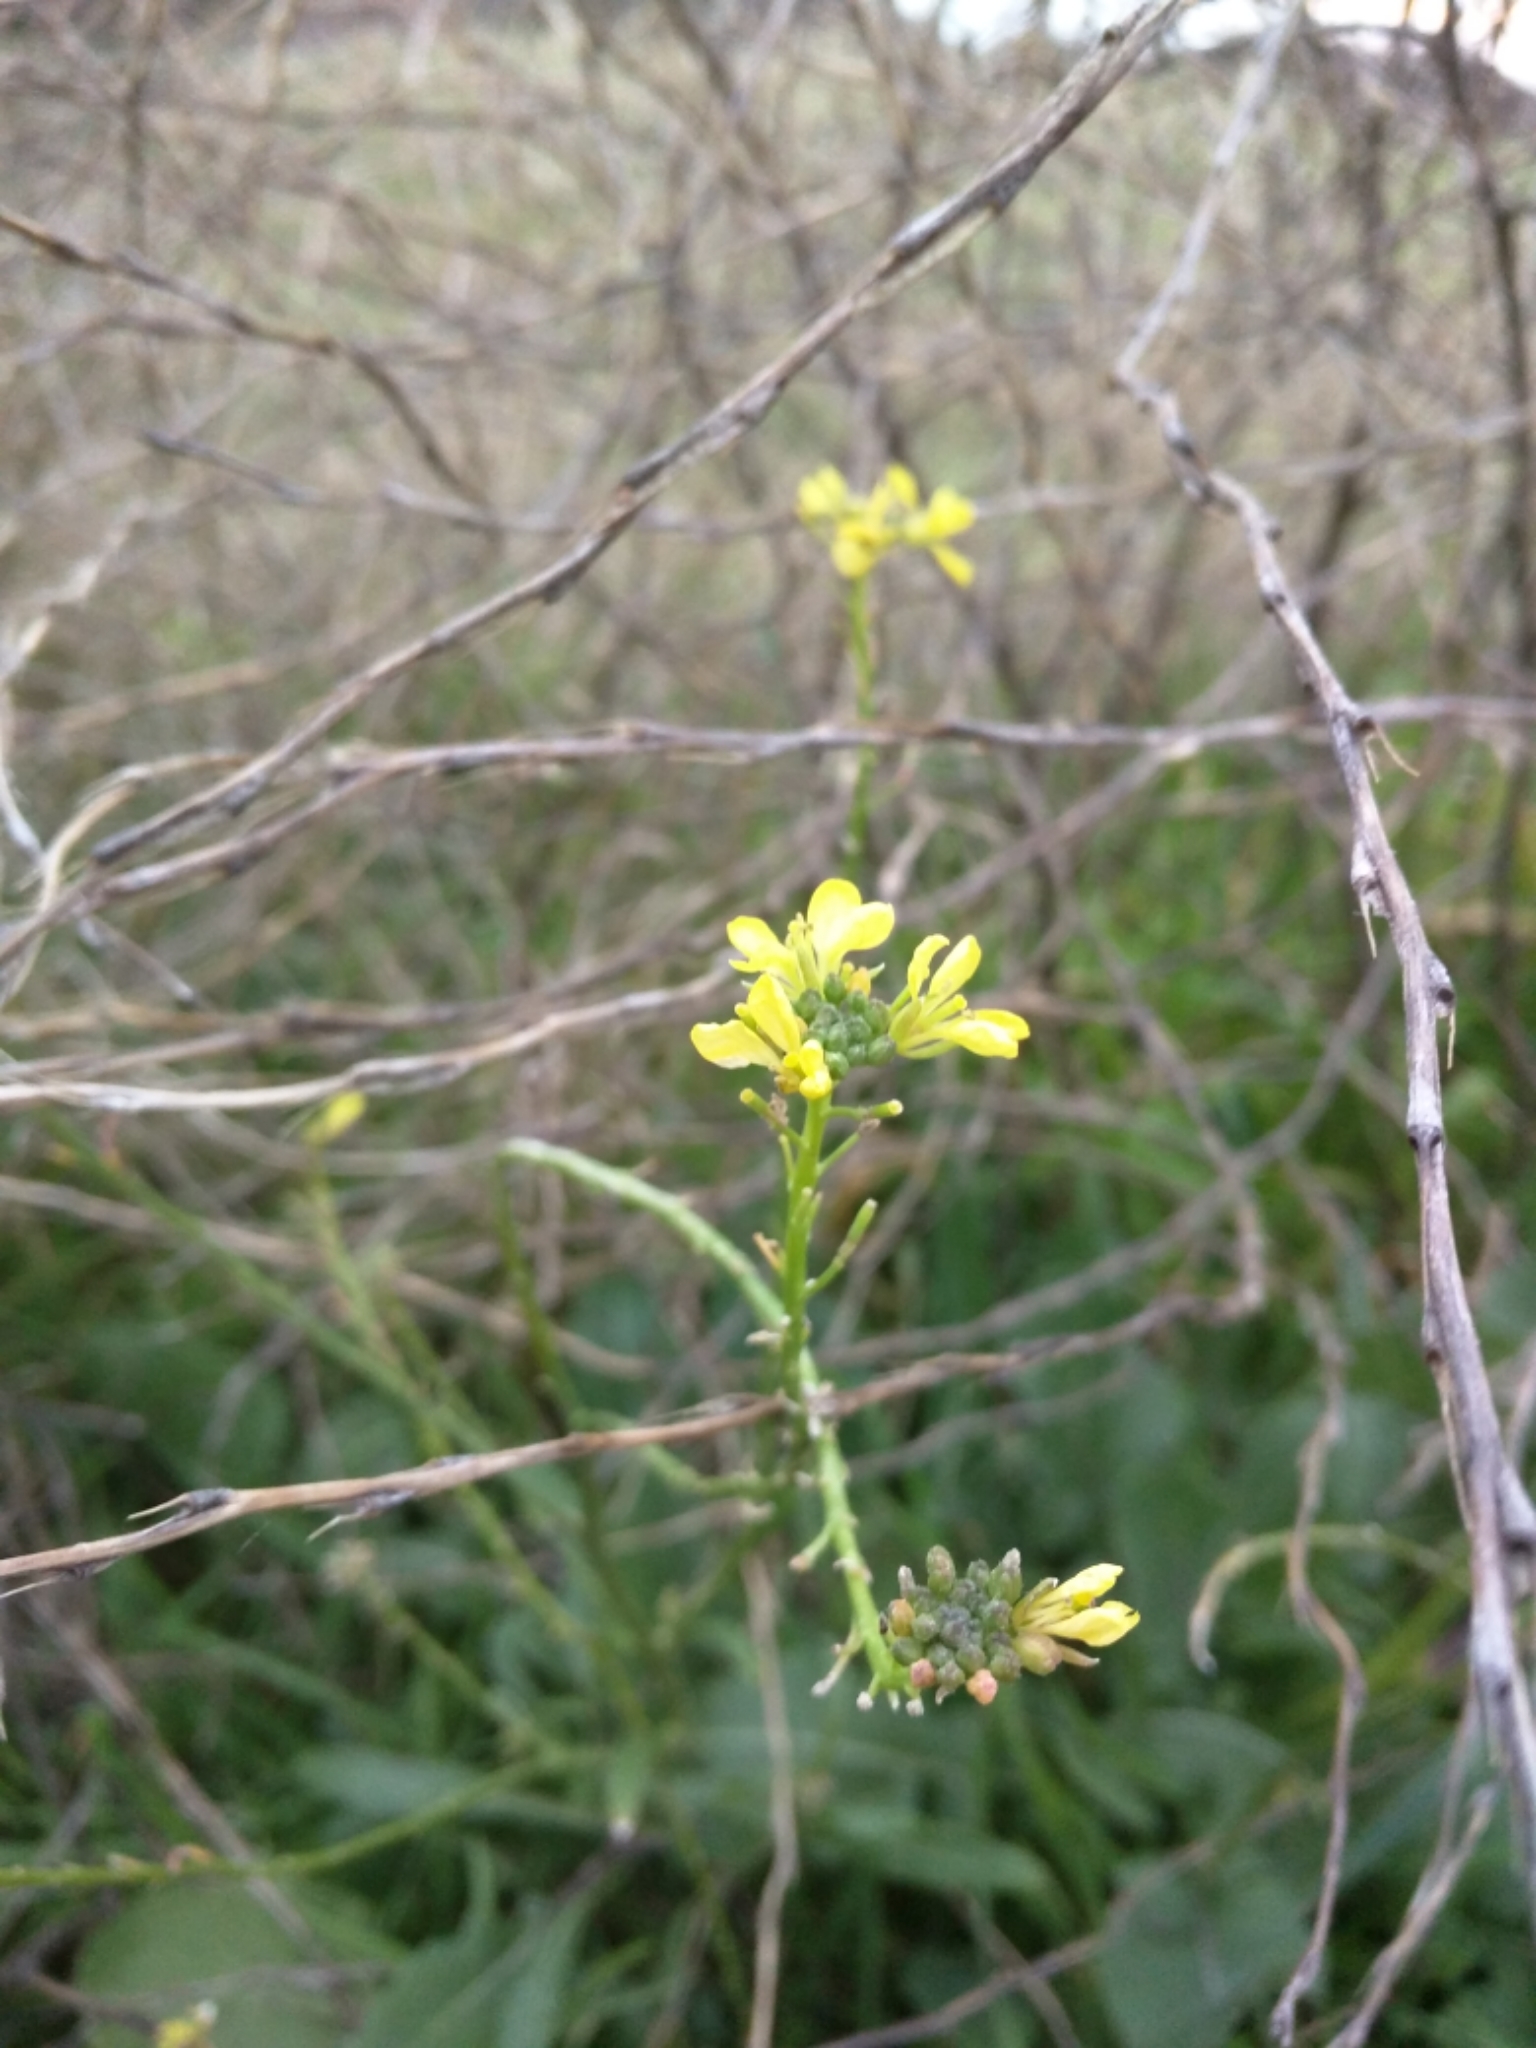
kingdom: Plantae
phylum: Tracheophyta
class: Magnoliopsida
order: Brassicales
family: Brassicaceae
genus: Sisymbrium
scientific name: Sisymbrium officinale
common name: Hedge mustard
